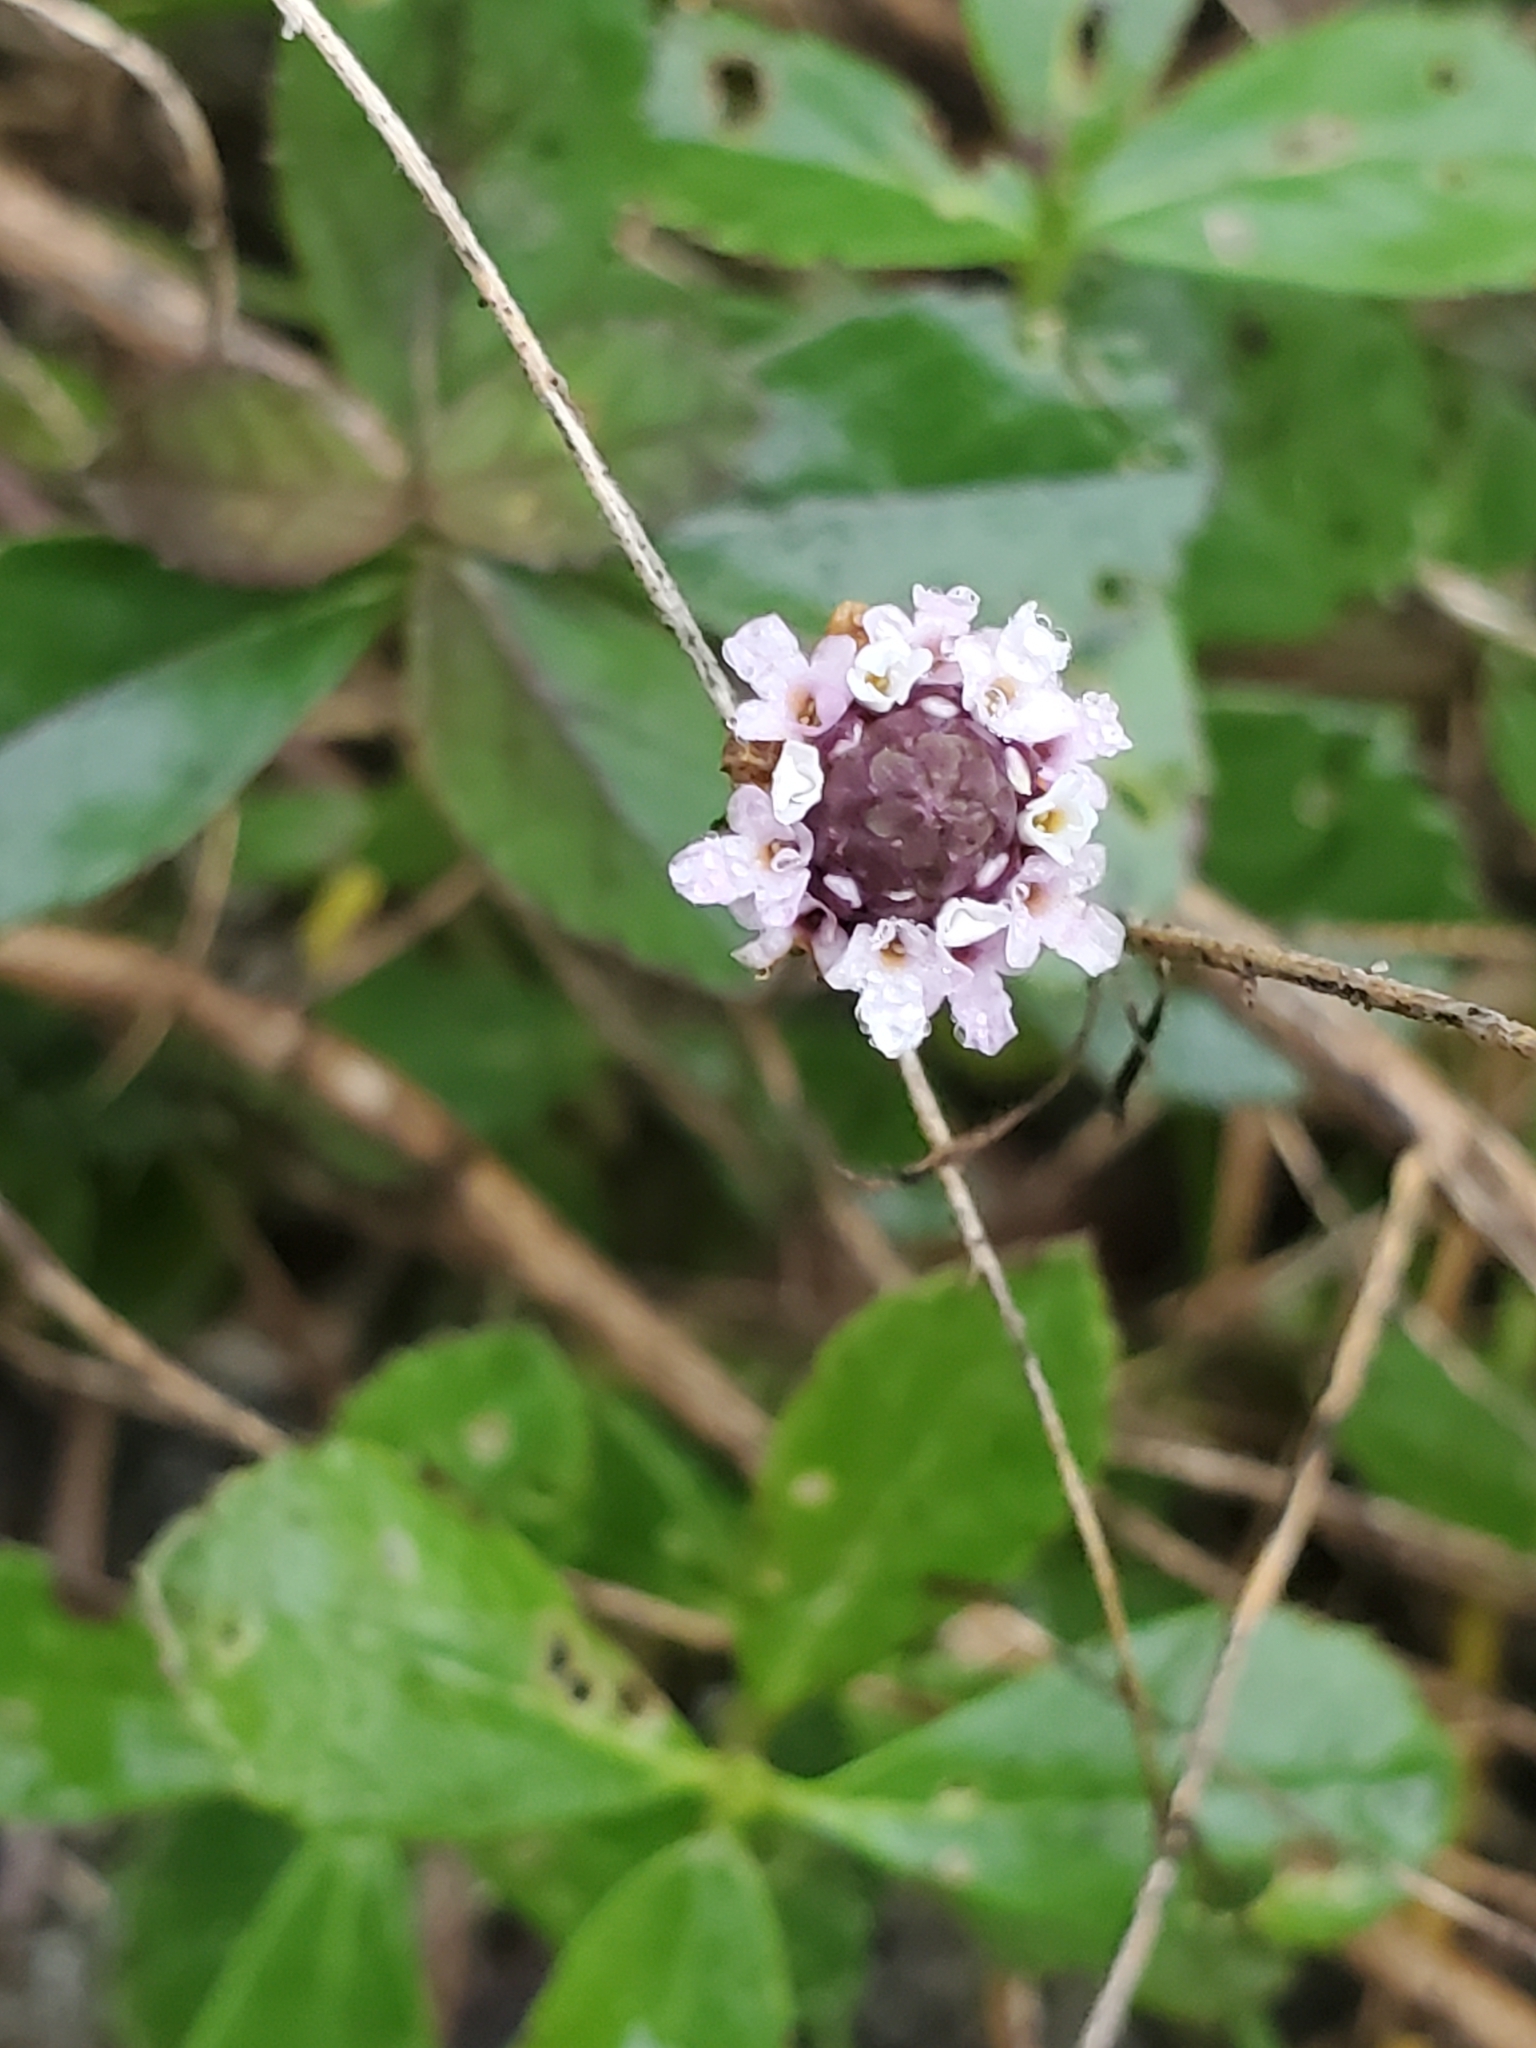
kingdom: Plantae
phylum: Tracheophyta
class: Magnoliopsida
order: Lamiales
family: Verbenaceae
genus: Phyla
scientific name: Phyla nodiflora
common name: Frogfruit
